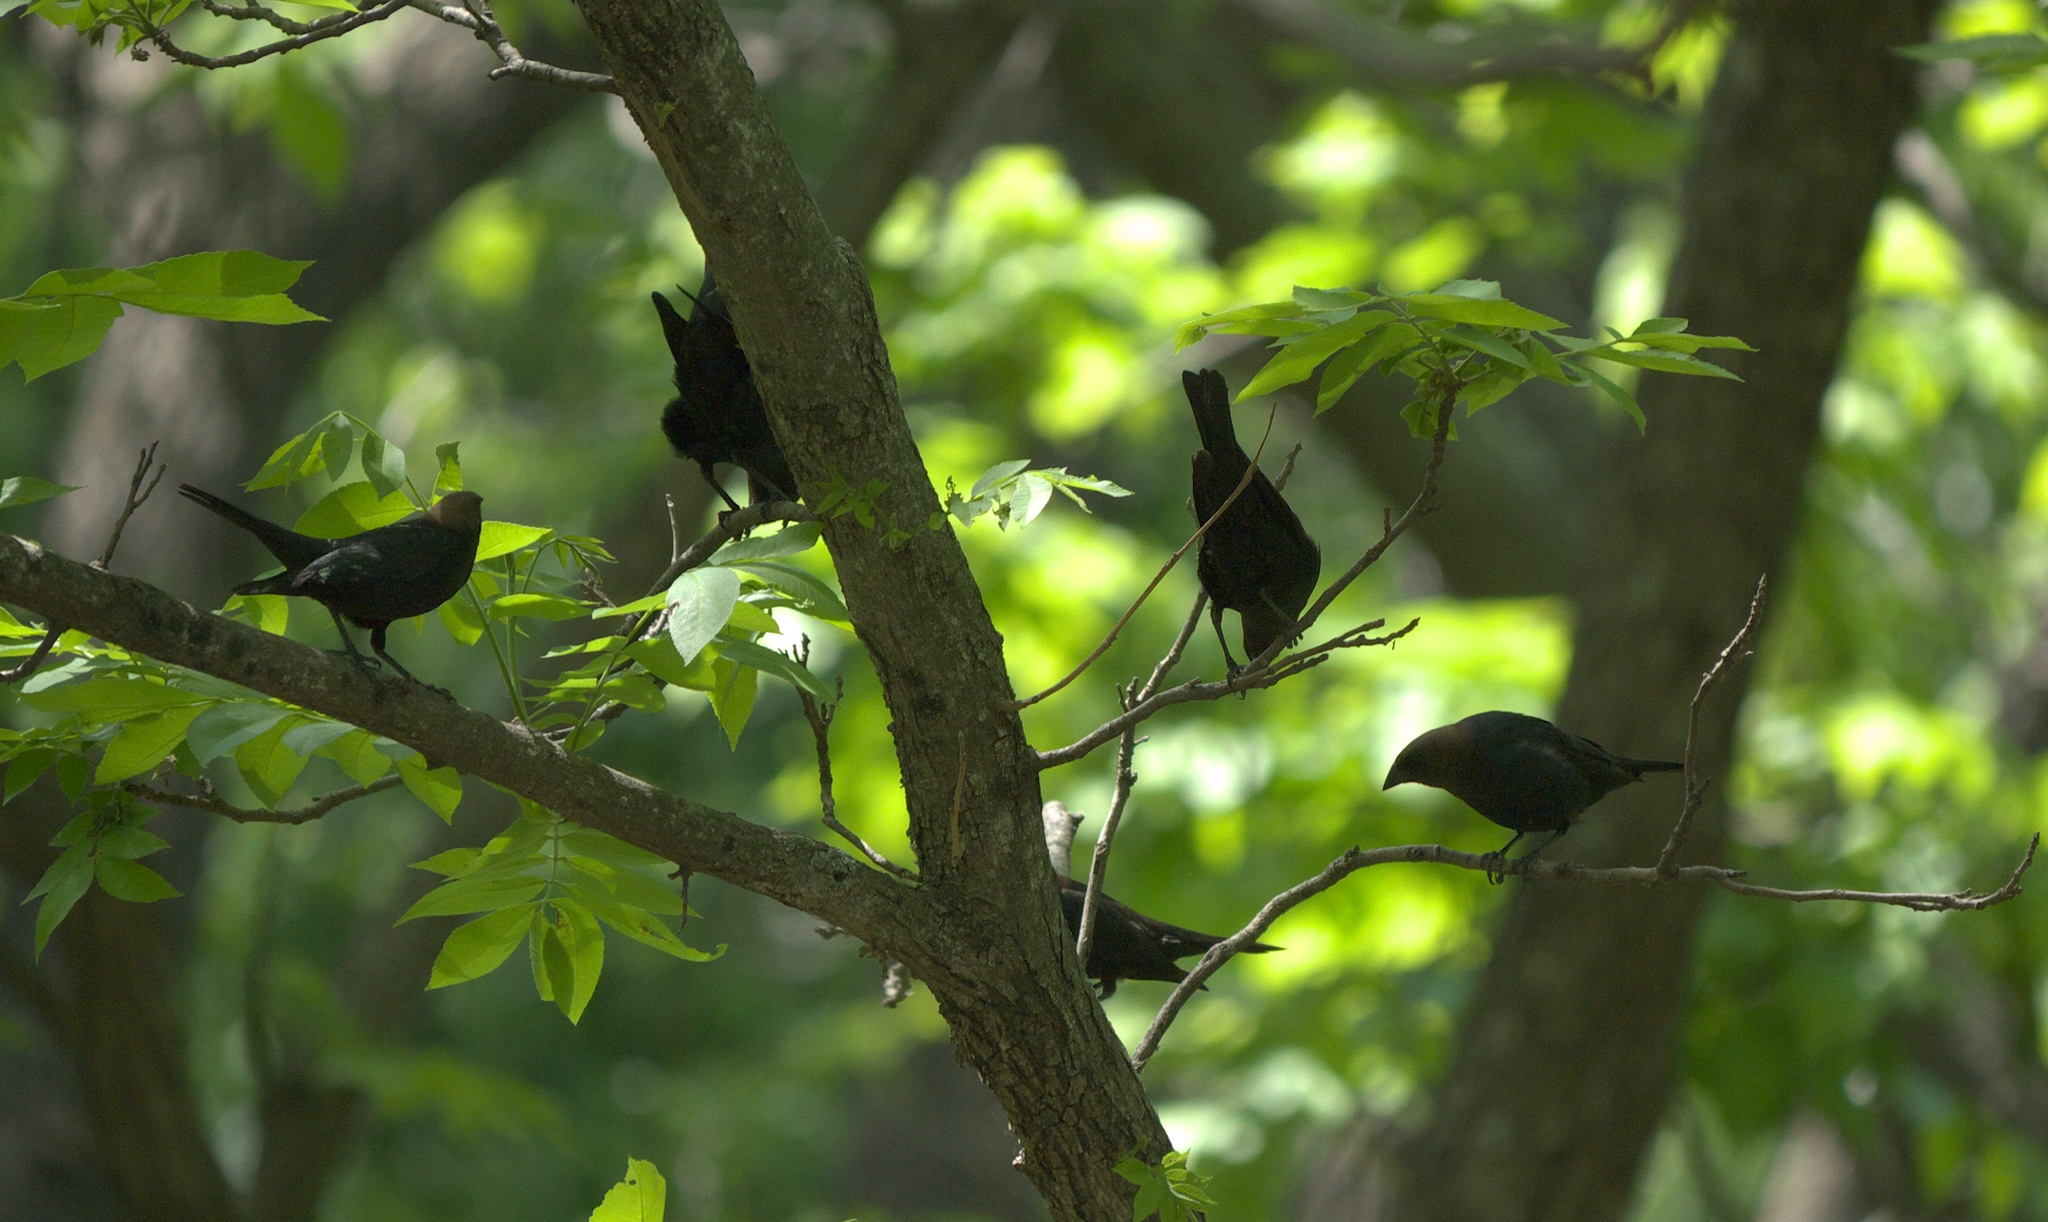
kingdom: Animalia
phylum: Chordata
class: Aves
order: Passeriformes
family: Icteridae
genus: Molothrus
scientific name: Molothrus ater
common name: Brown-headed cowbird
